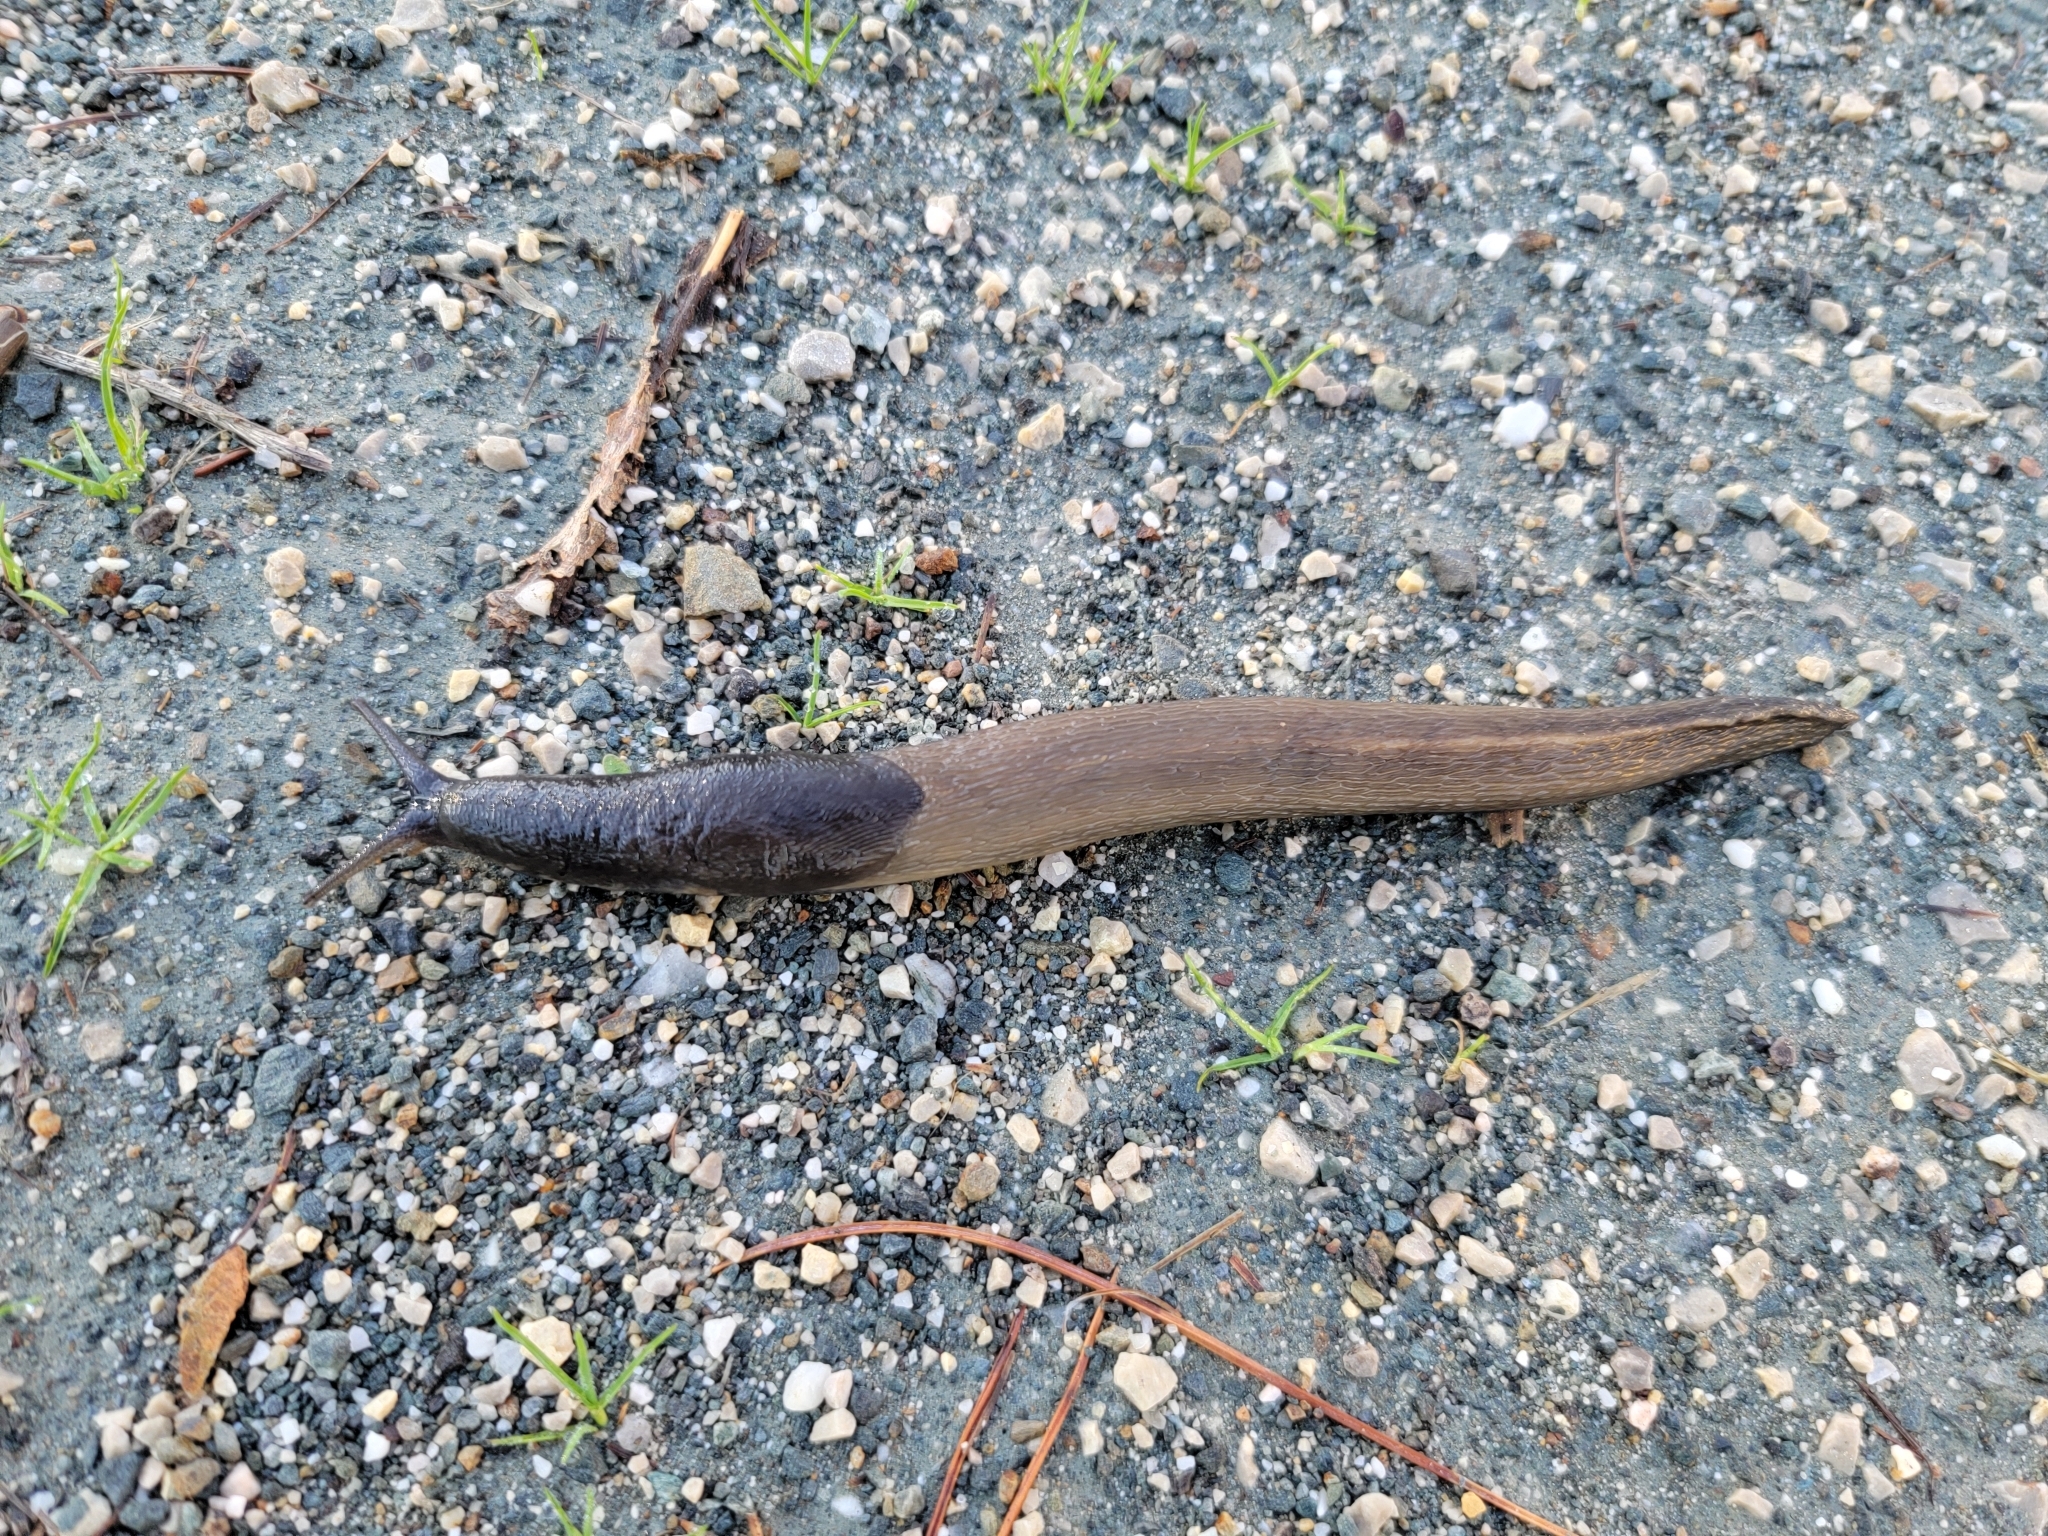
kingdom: Animalia
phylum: Mollusca
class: Gastropoda
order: Stylommatophora
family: Limacidae
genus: Limax
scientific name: Limax cinereoniger
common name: Ash-black slug
